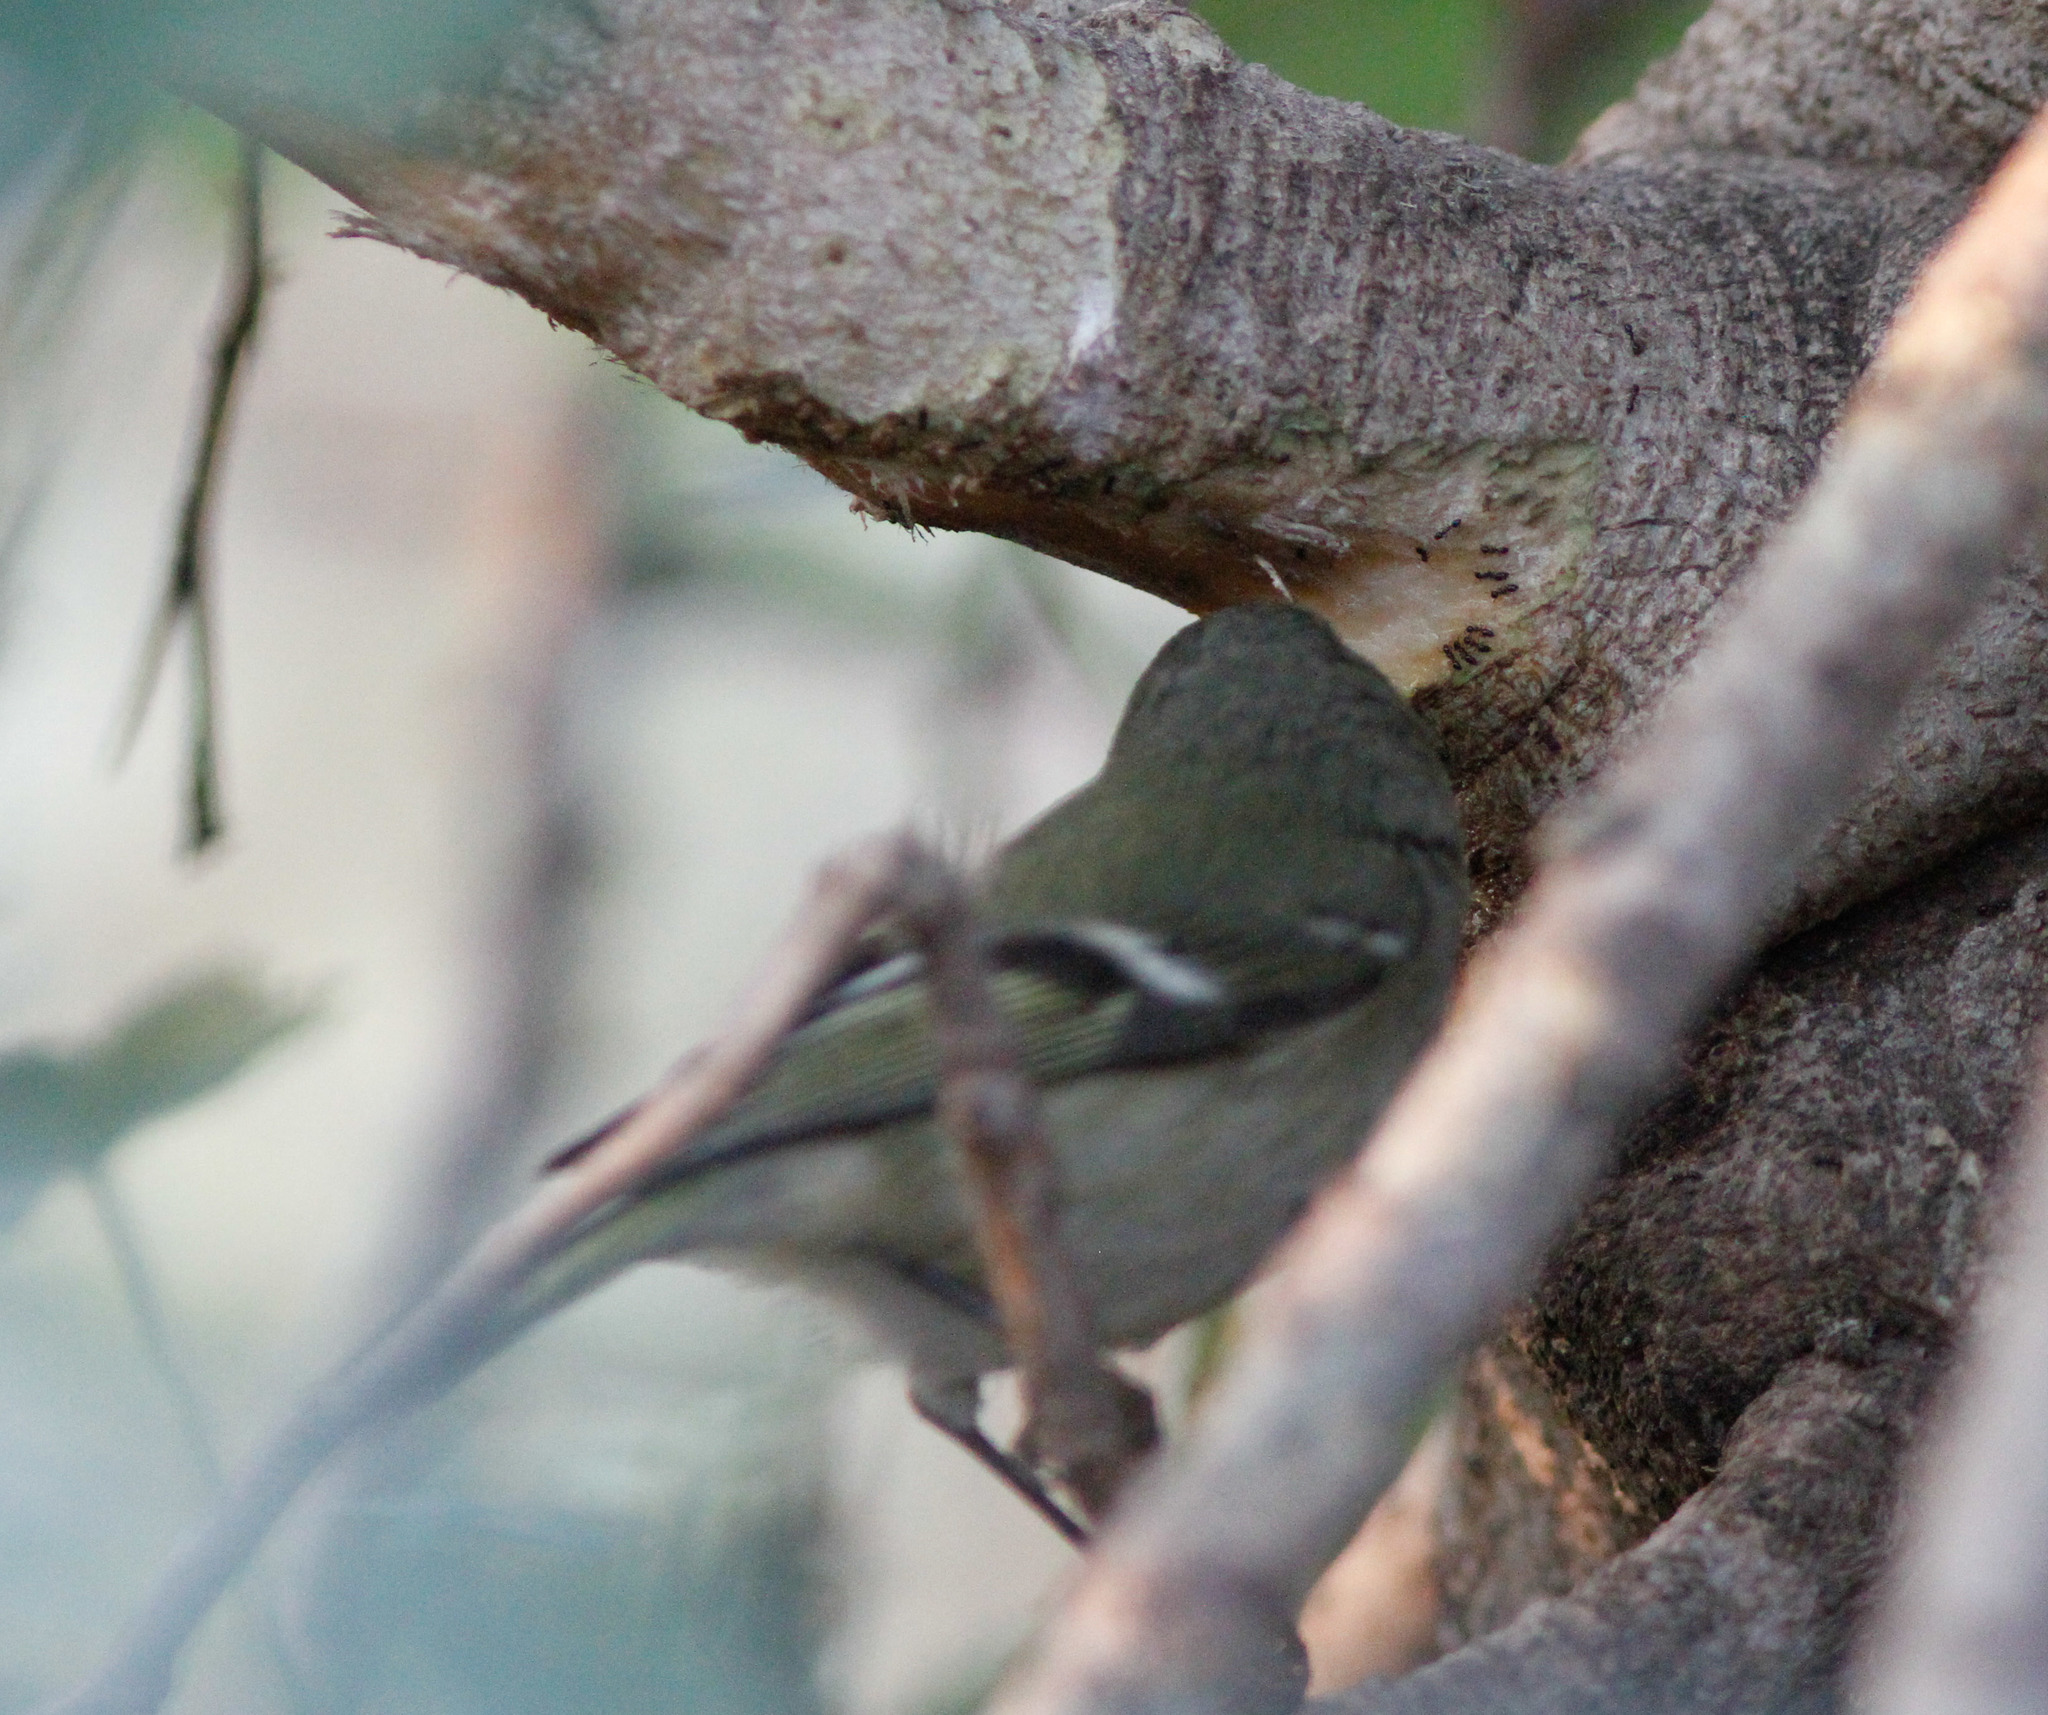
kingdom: Animalia
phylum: Chordata
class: Aves
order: Passeriformes
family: Regulidae
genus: Regulus
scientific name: Regulus calendula
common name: Ruby-crowned kinglet
